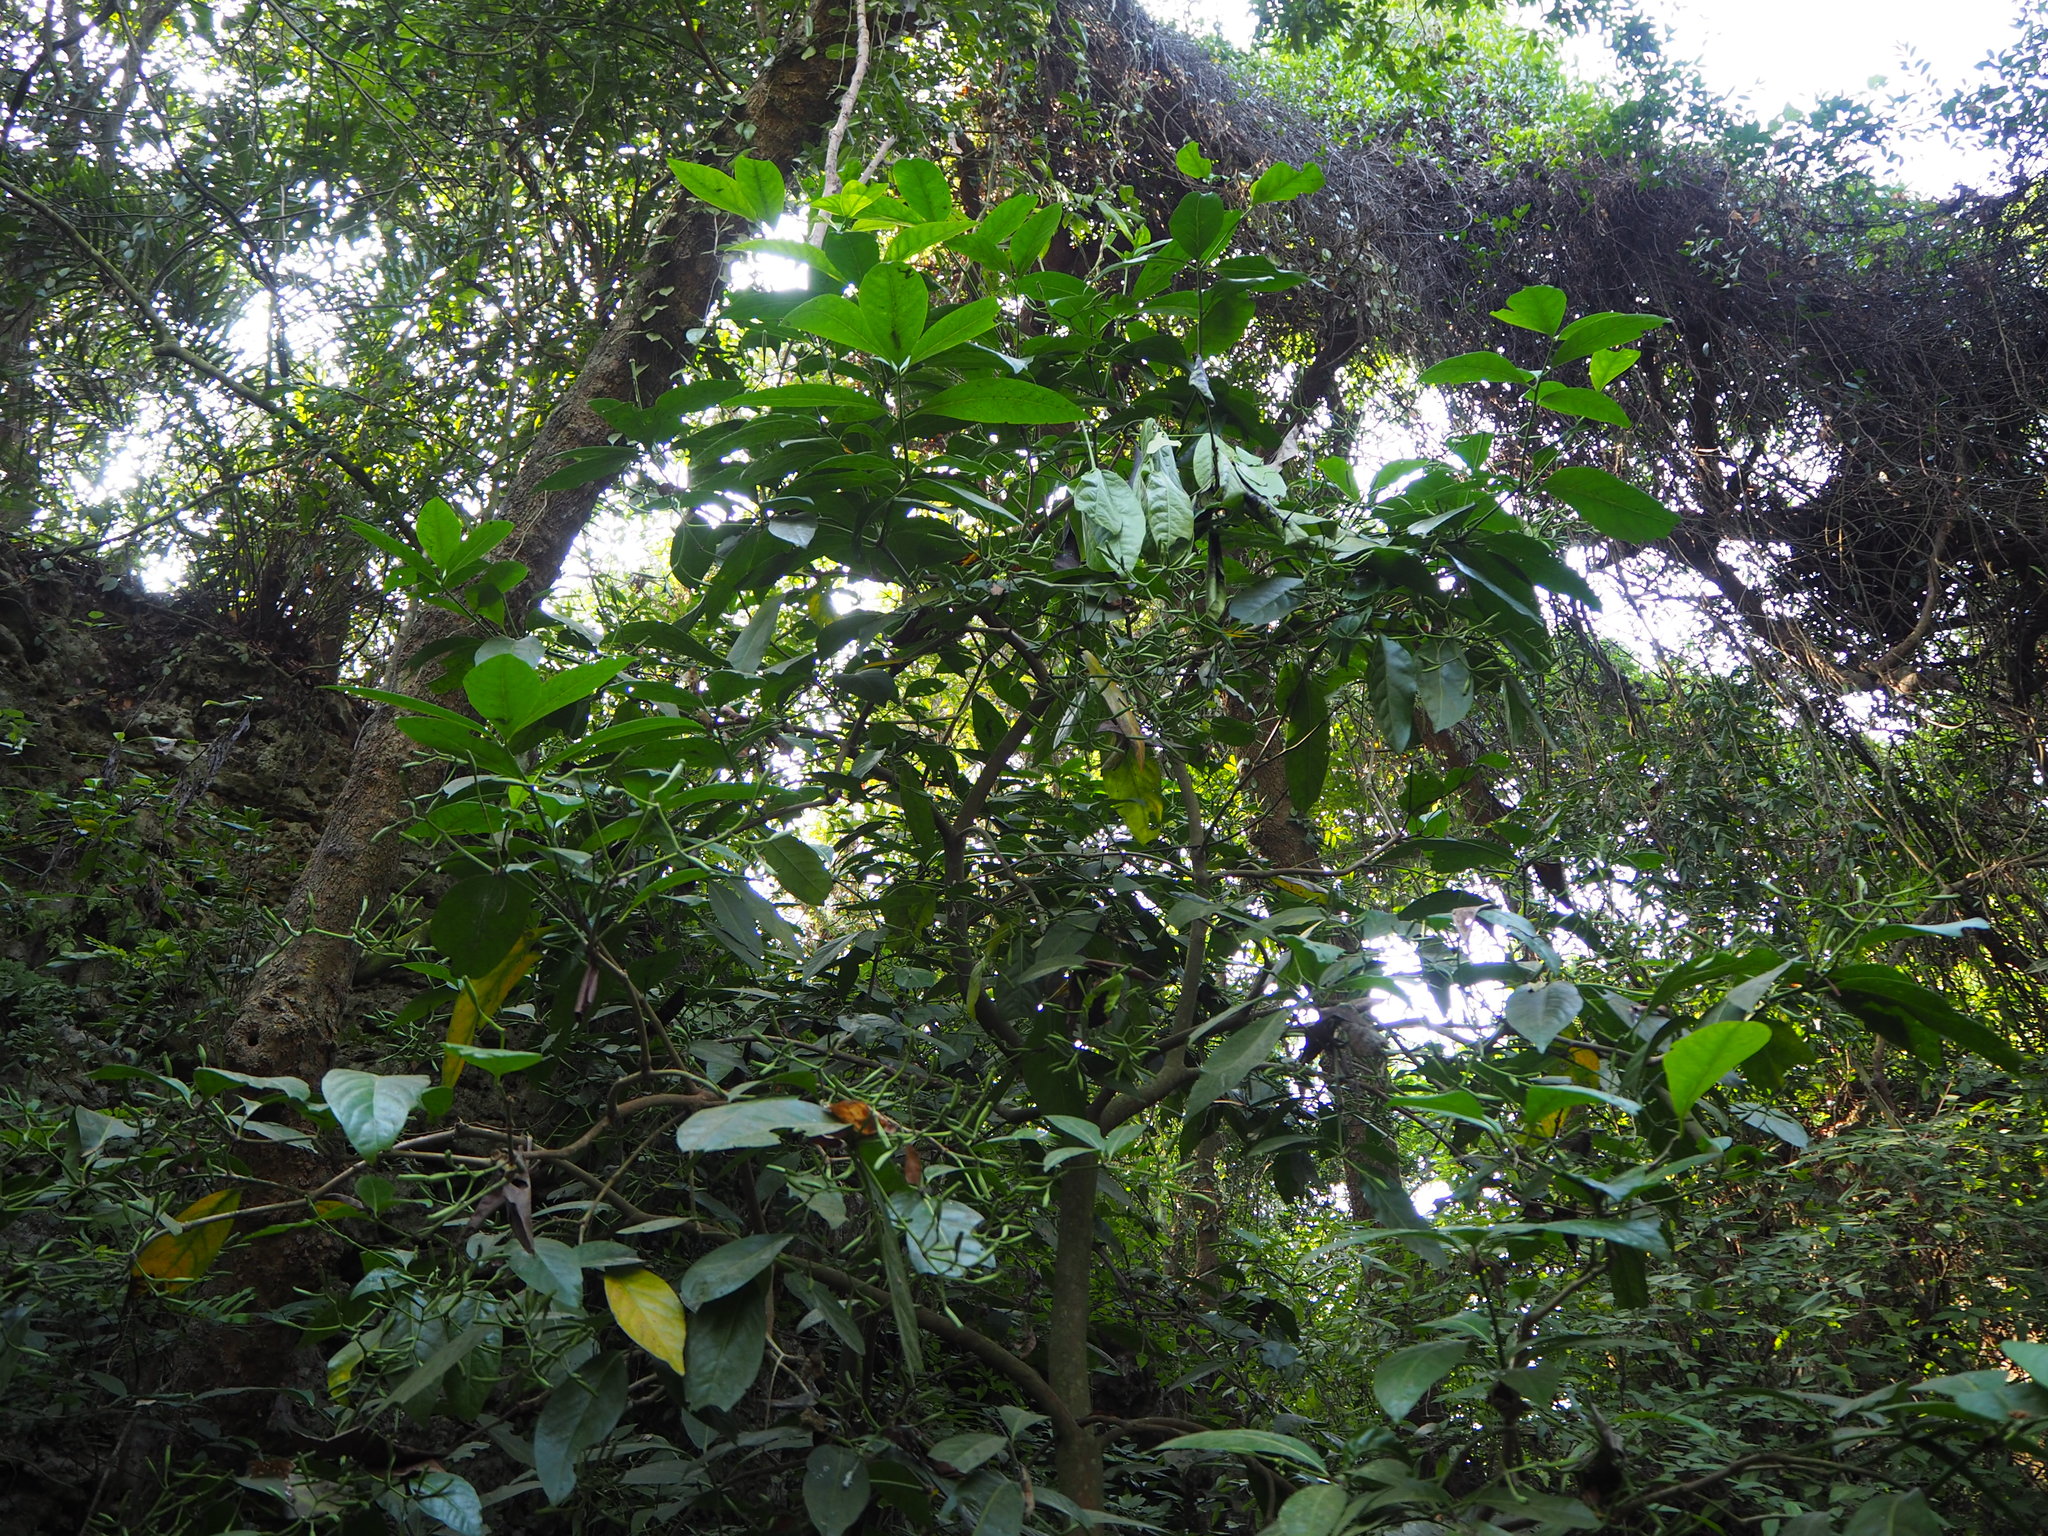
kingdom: Plantae
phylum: Tracheophyta
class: Magnoliopsida
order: Caryophyllales
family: Nyctaginaceae
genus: Ceodes
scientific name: Ceodes umbellifera
